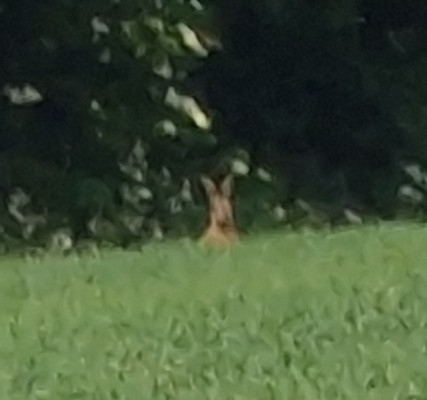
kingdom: Animalia
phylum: Chordata
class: Mammalia
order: Lagomorpha
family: Leporidae
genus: Lepus
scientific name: Lepus europaeus
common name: European hare
